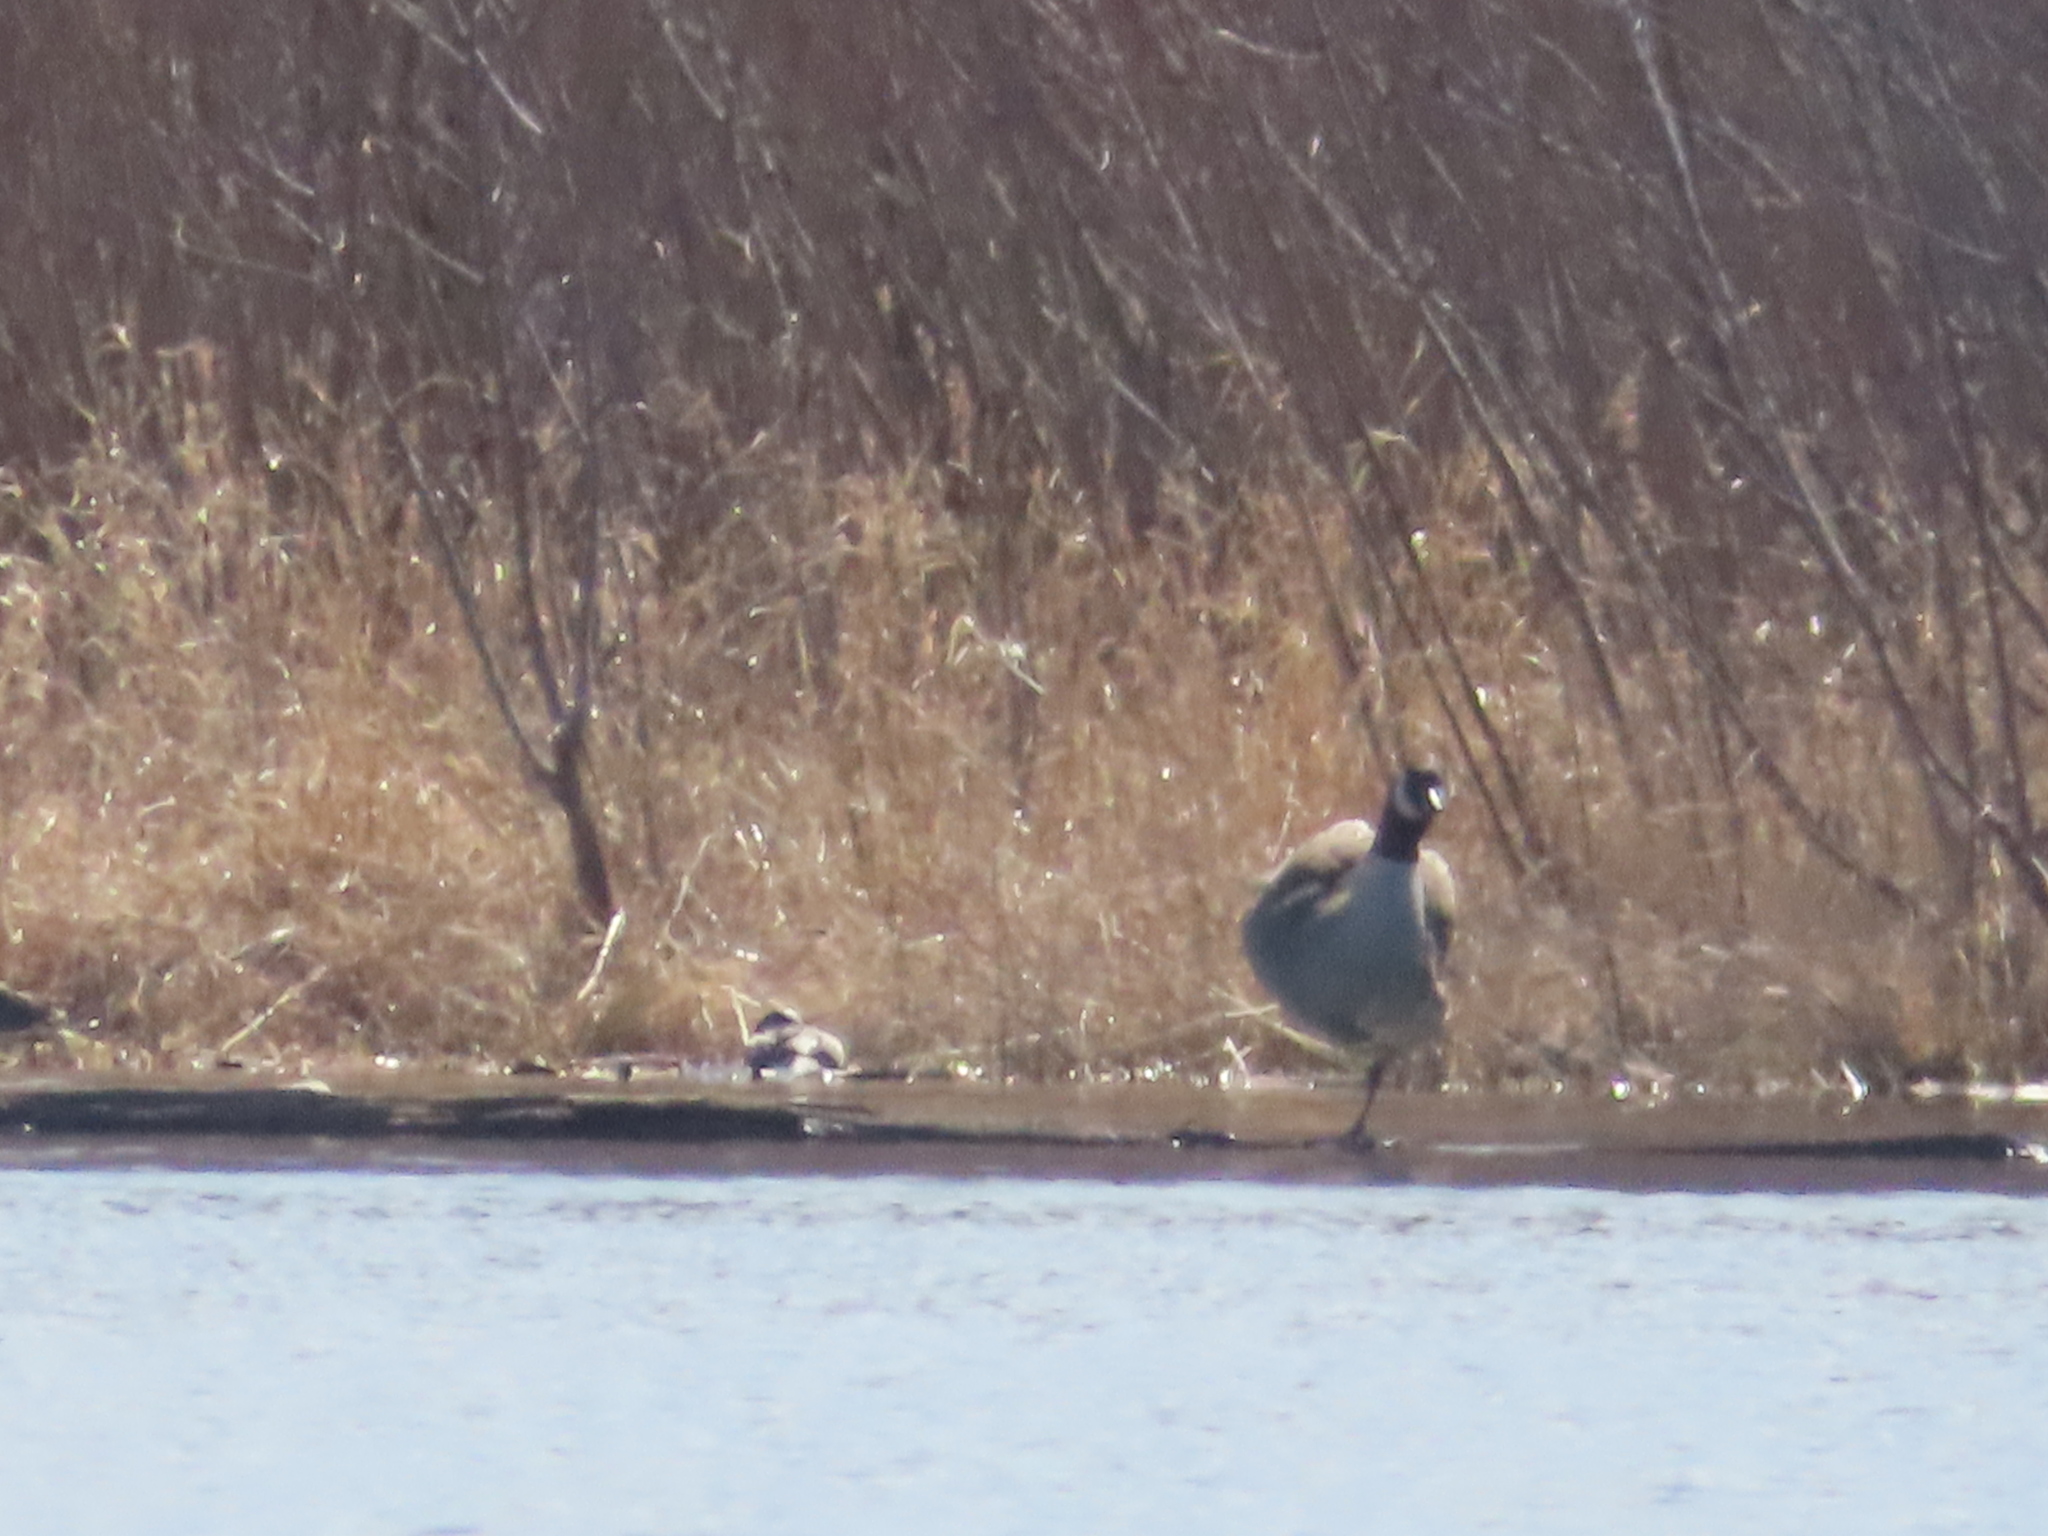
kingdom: Animalia
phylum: Chordata
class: Aves
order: Anseriformes
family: Anatidae
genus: Branta
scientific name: Branta canadensis
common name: Canada goose
